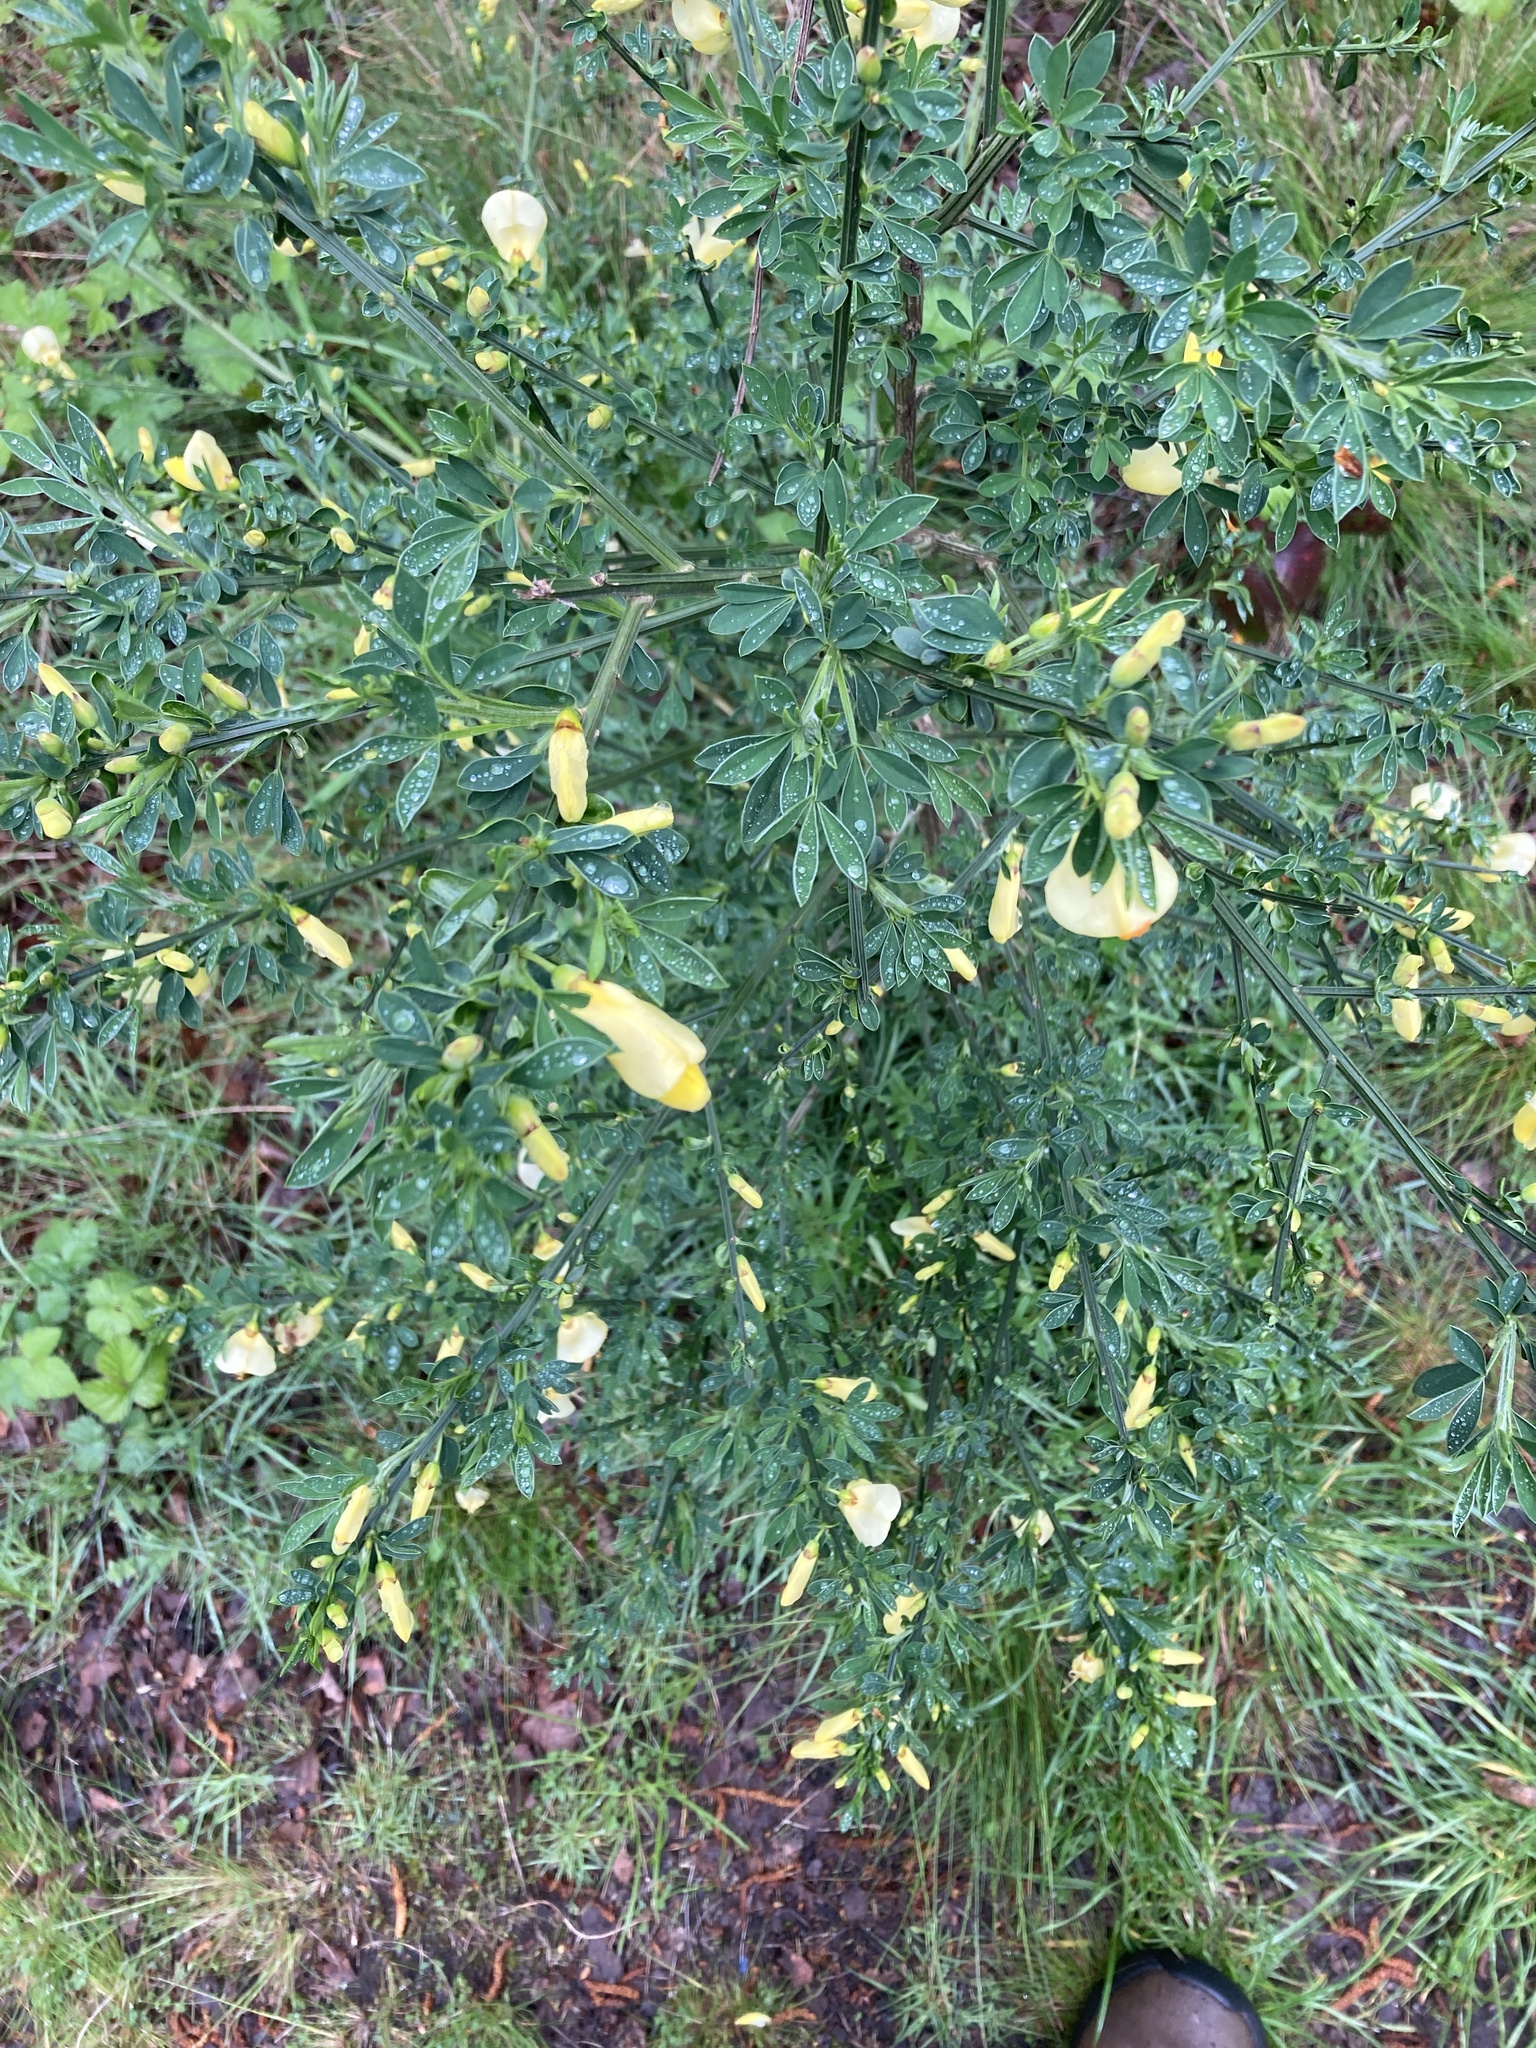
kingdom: Plantae
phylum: Tracheophyta
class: Magnoliopsida
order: Fabales
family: Fabaceae
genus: Cytisus
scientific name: Cytisus scoparius
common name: Scotch broom
